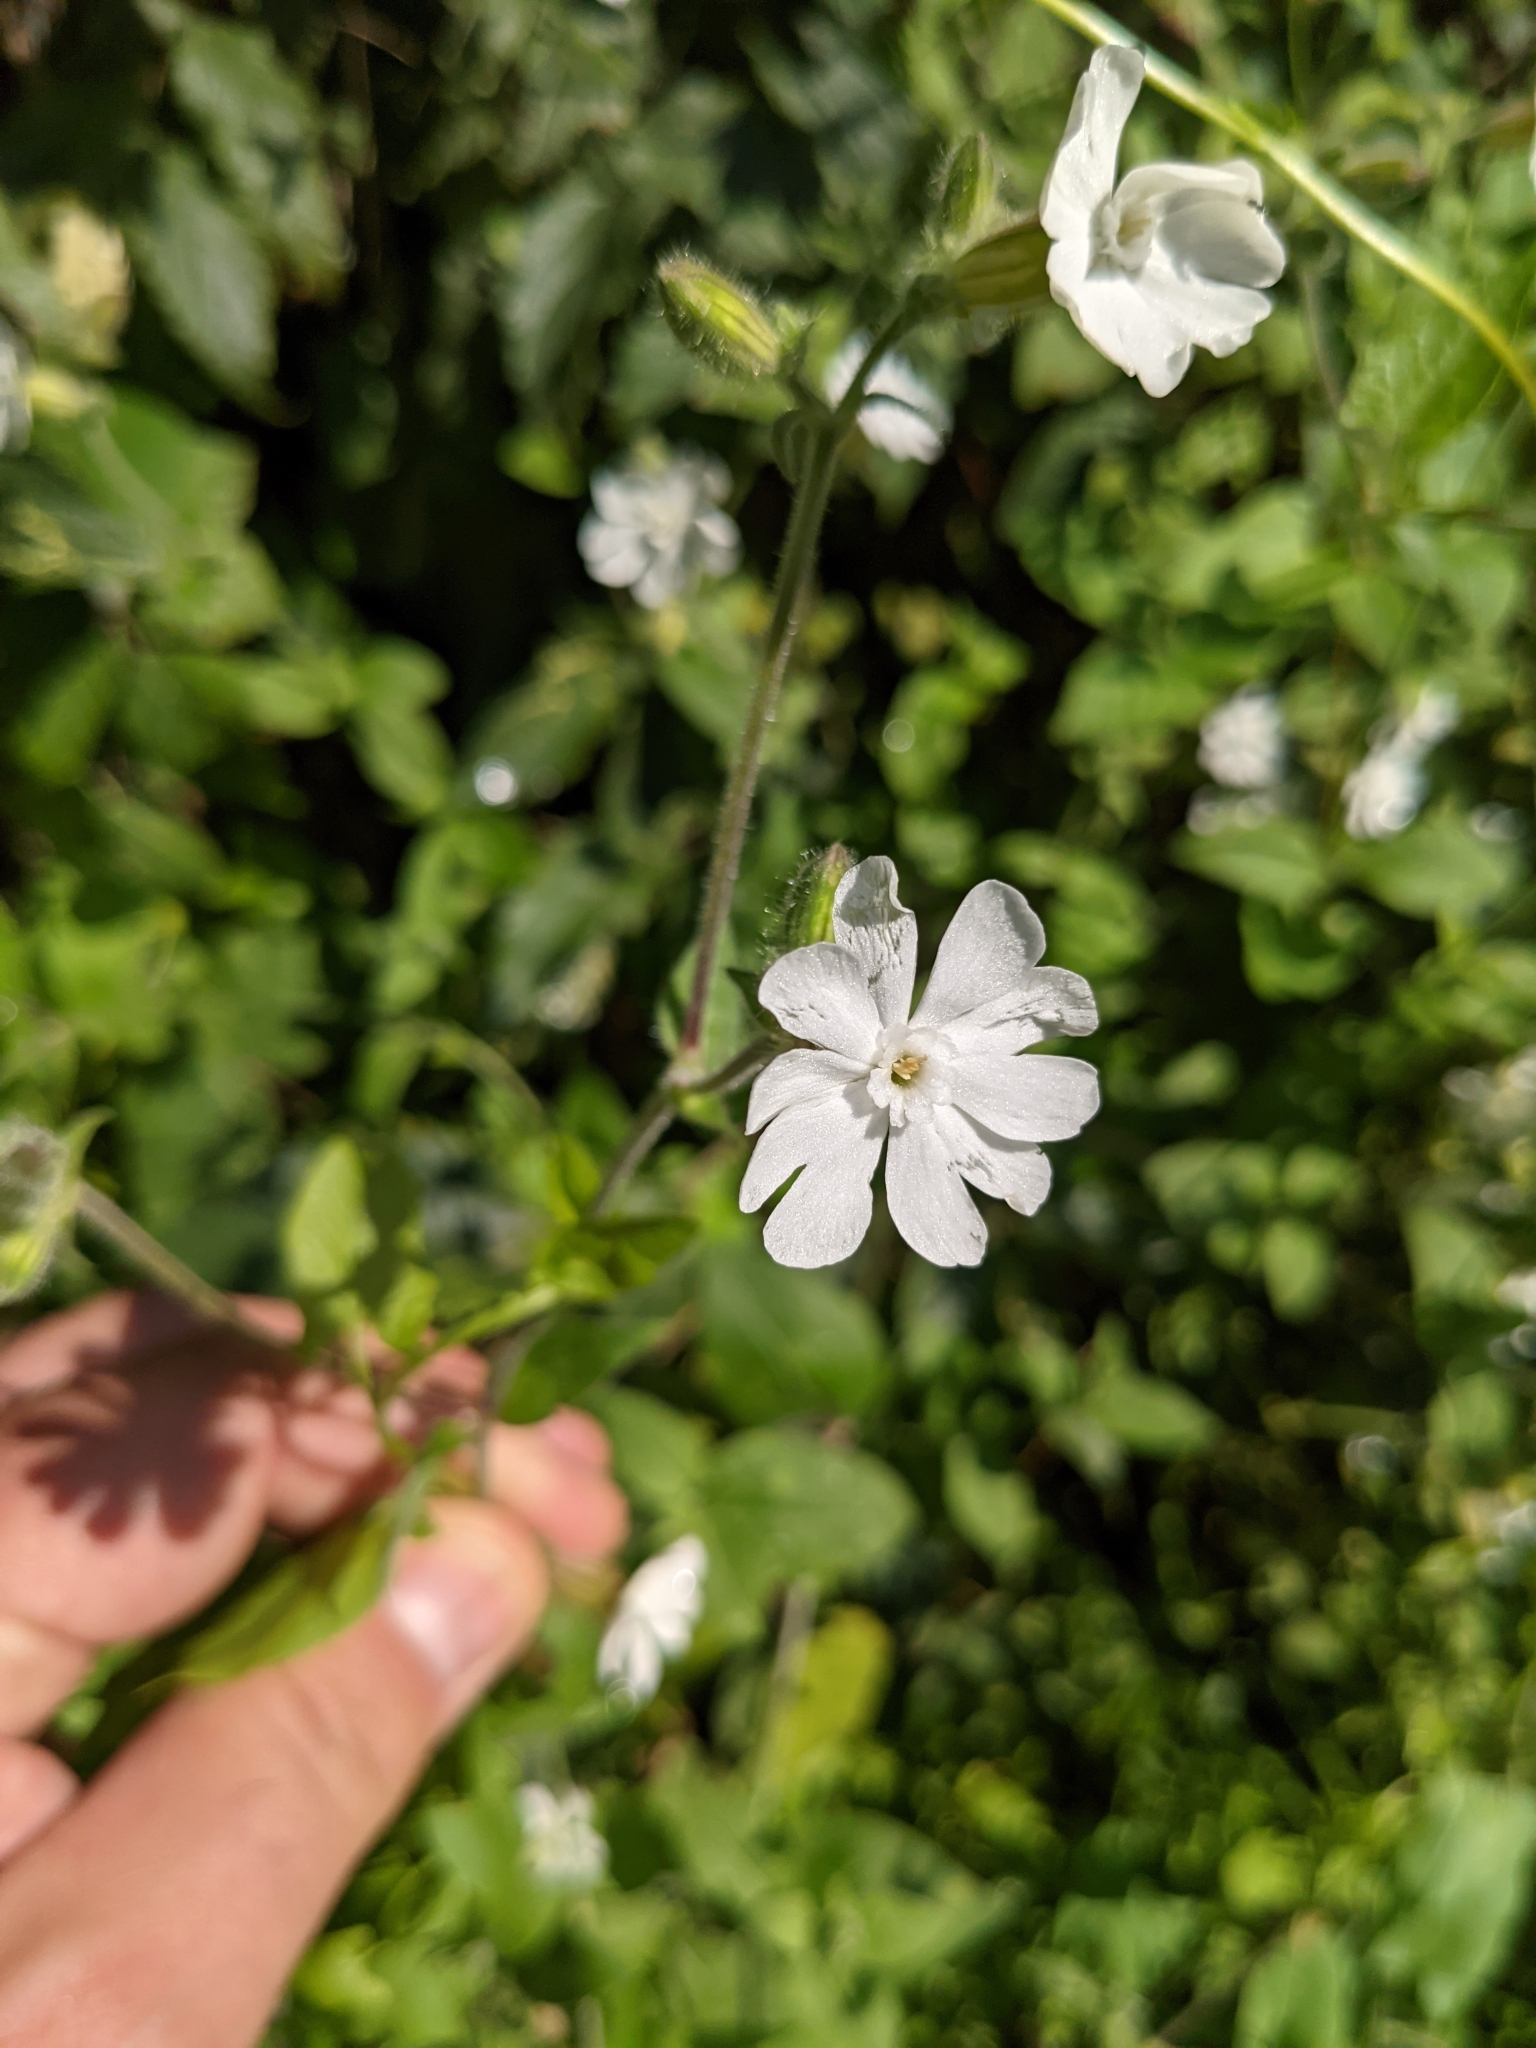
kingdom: Plantae
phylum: Tracheophyta
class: Magnoliopsida
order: Caryophyllales
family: Caryophyllaceae
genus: Silene
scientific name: Silene latifolia
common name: White campion
